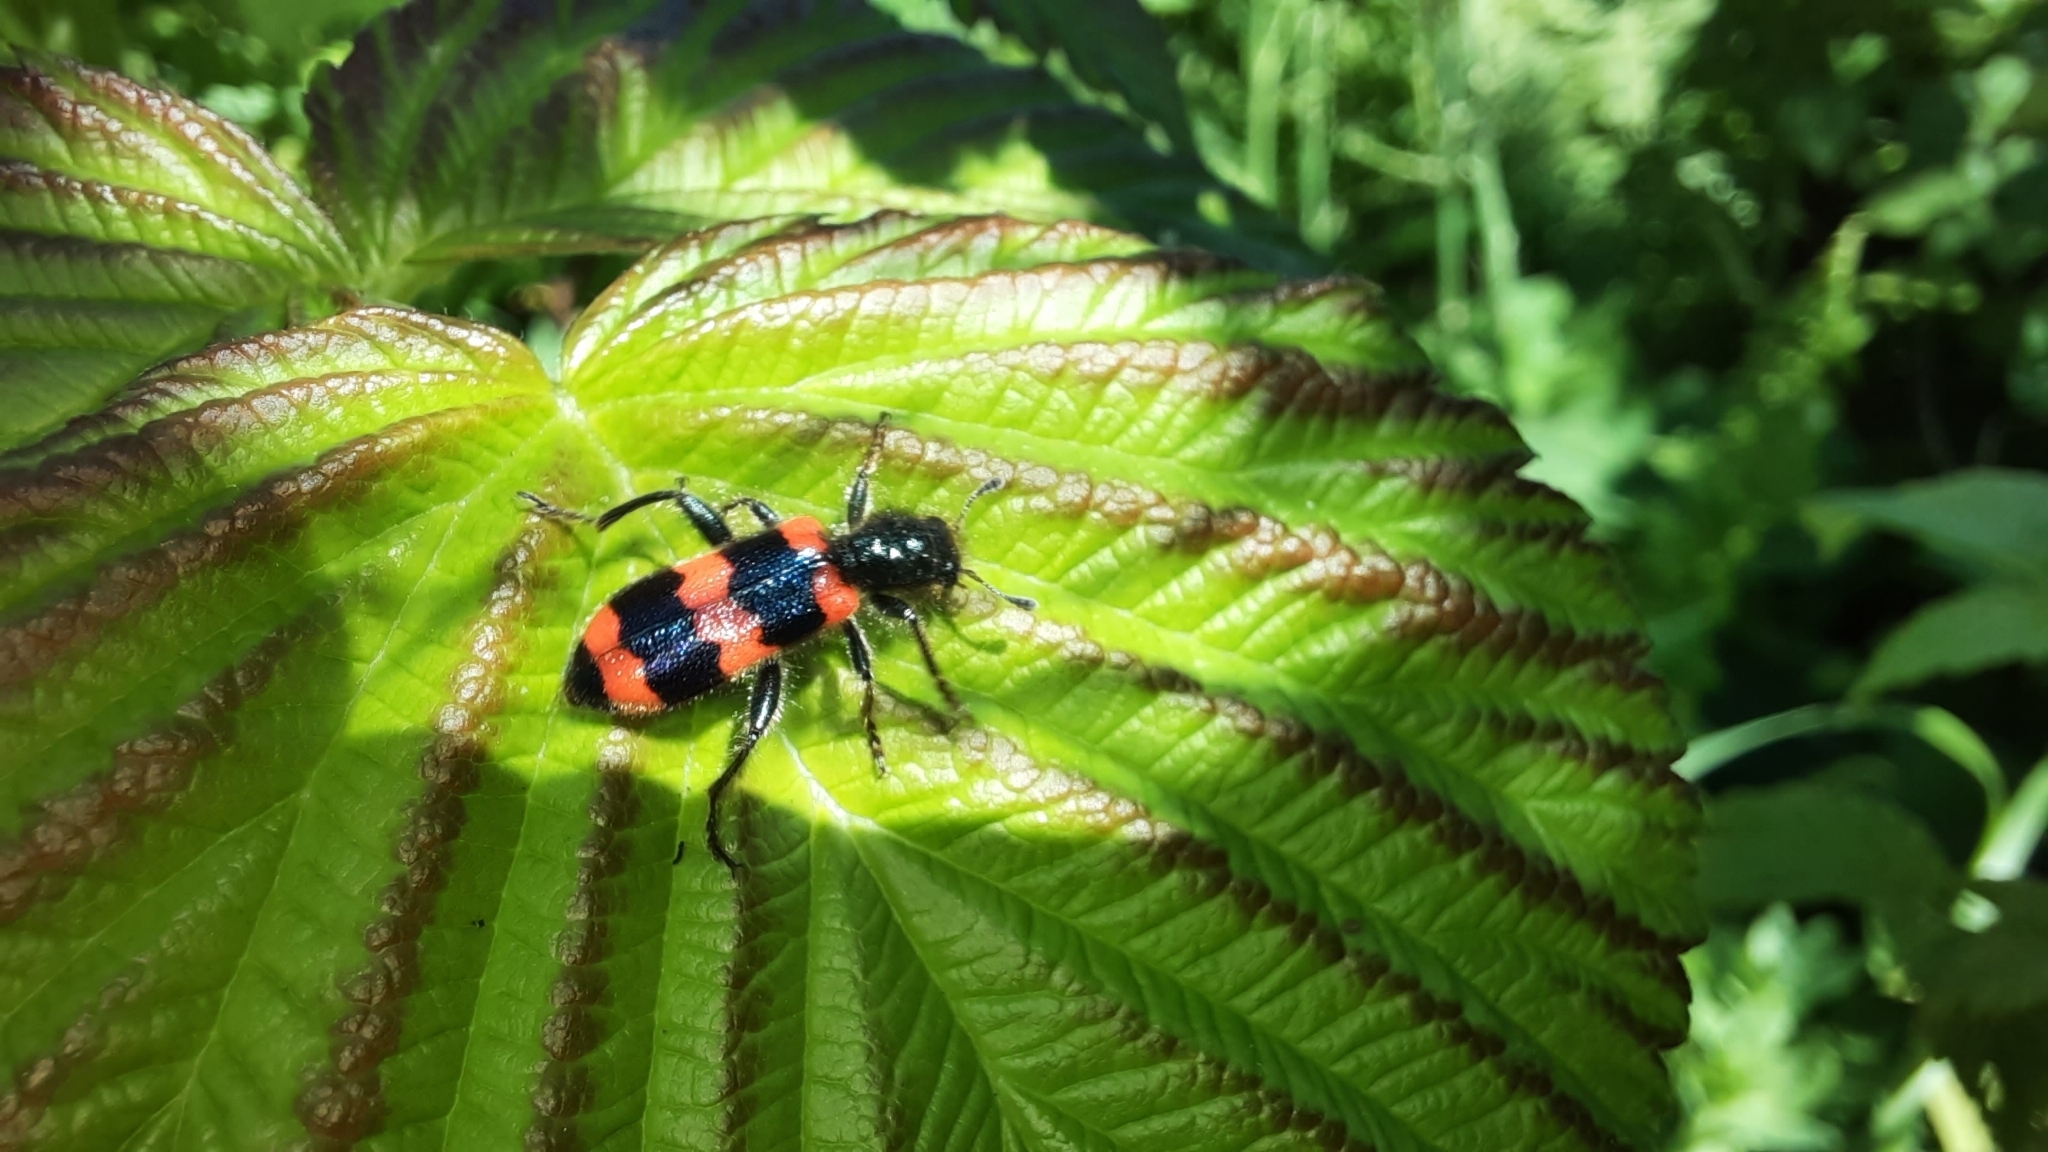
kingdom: Animalia
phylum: Arthropoda
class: Insecta
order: Coleoptera
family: Cleridae
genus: Trichodes
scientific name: Trichodes apiarius
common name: Bee-eating beetle
